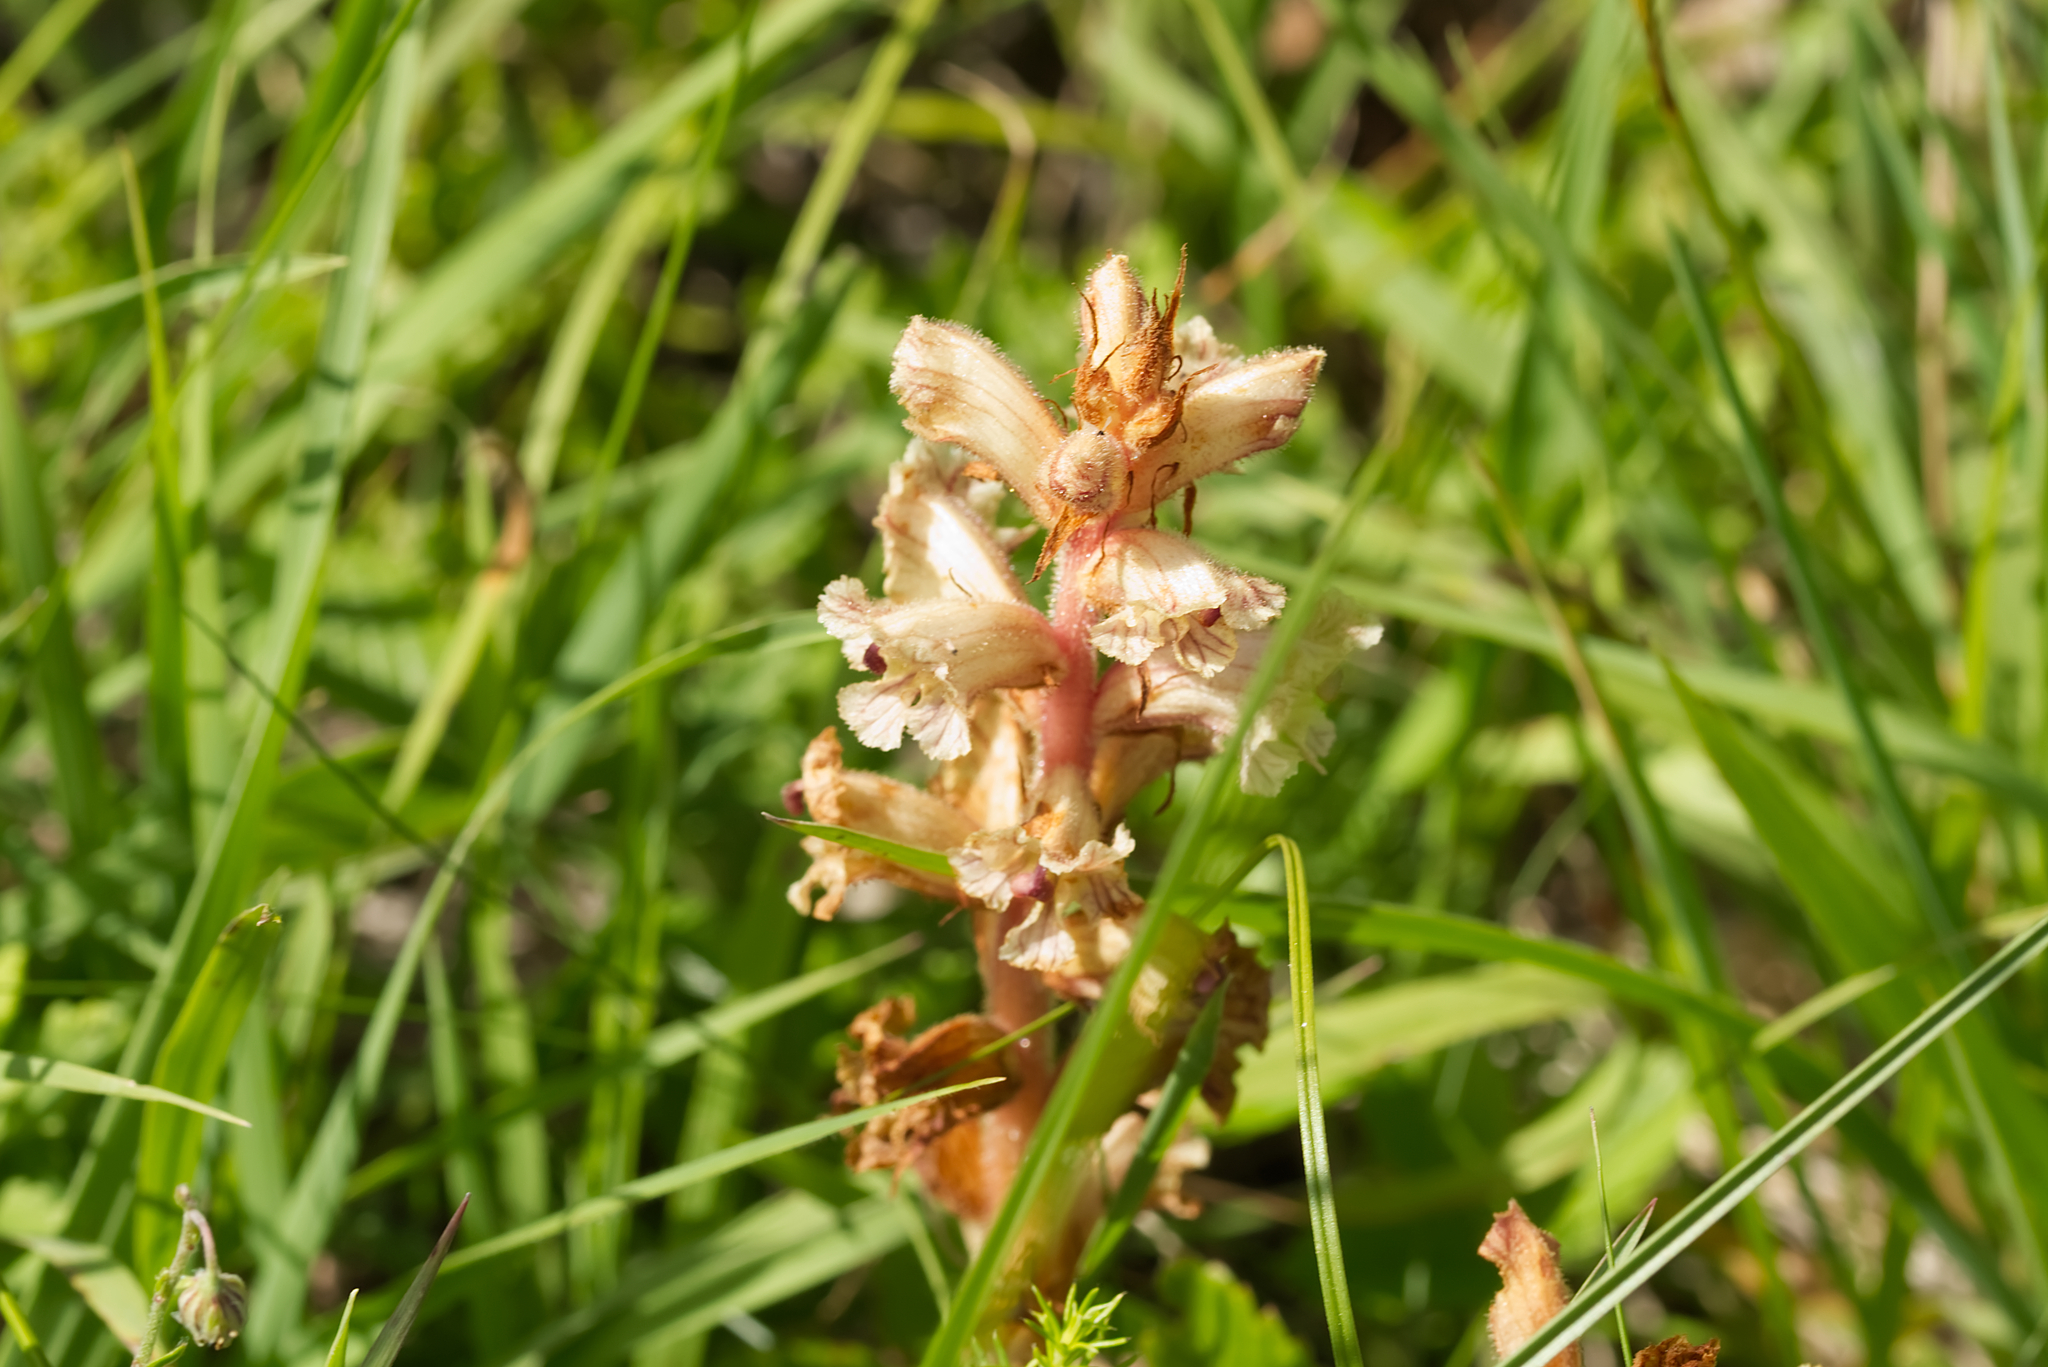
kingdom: Plantae
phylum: Tracheophyta
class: Magnoliopsida
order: Lamiales
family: Orobanchaceae
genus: Orobanche
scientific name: Orobanche alba
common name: Thyme broomrape
